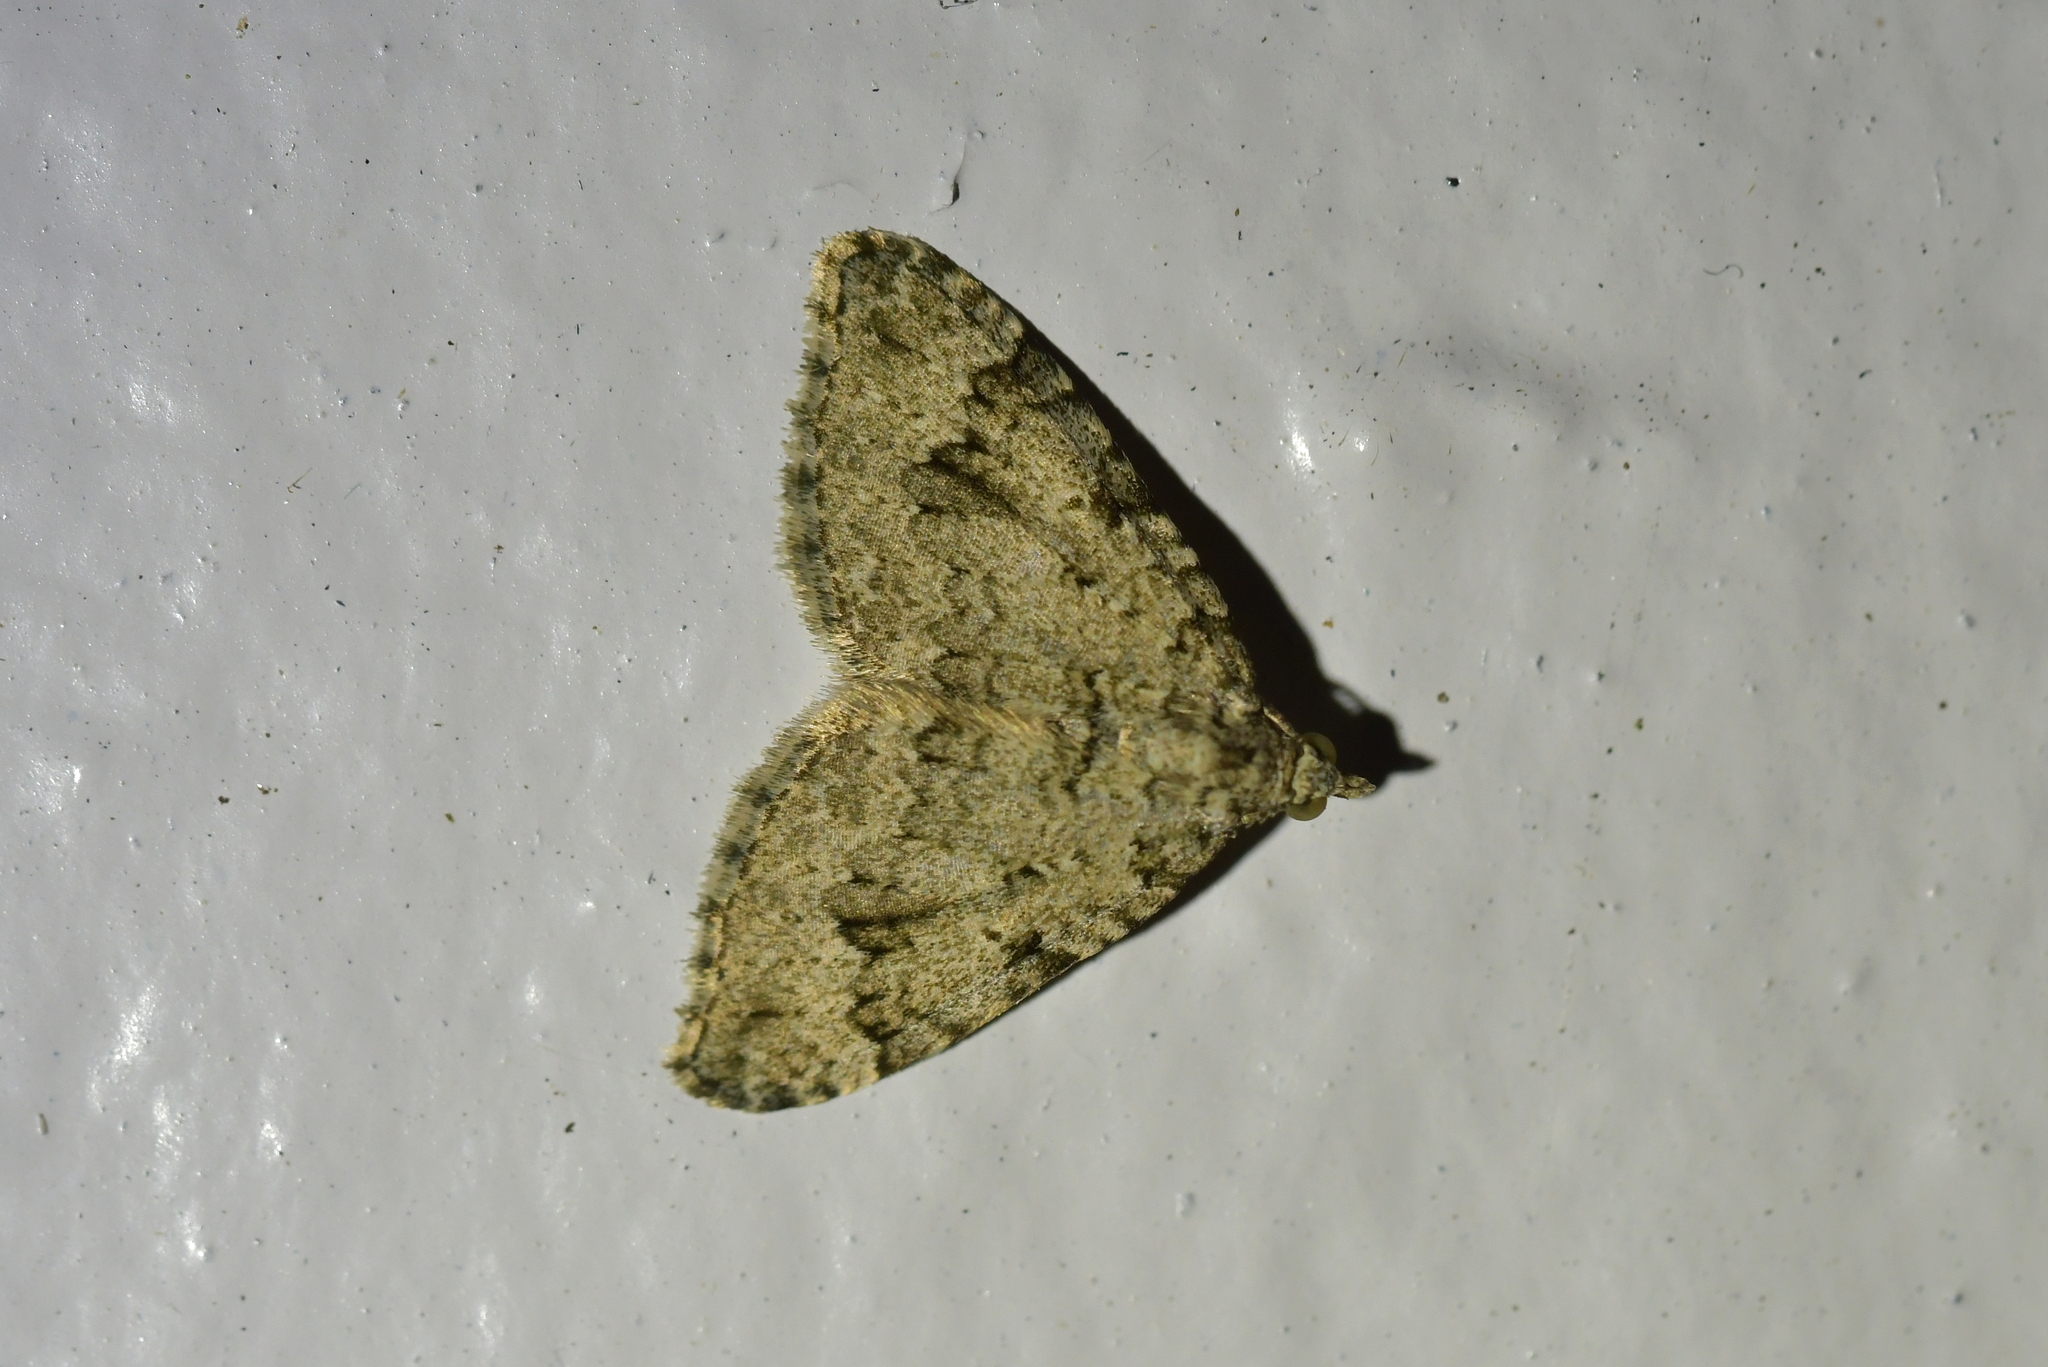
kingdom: Animalia
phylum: Arthropoda
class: Insecta
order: Lepidoptera
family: Geometridae
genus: Helastia
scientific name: Helastia cinerearia
